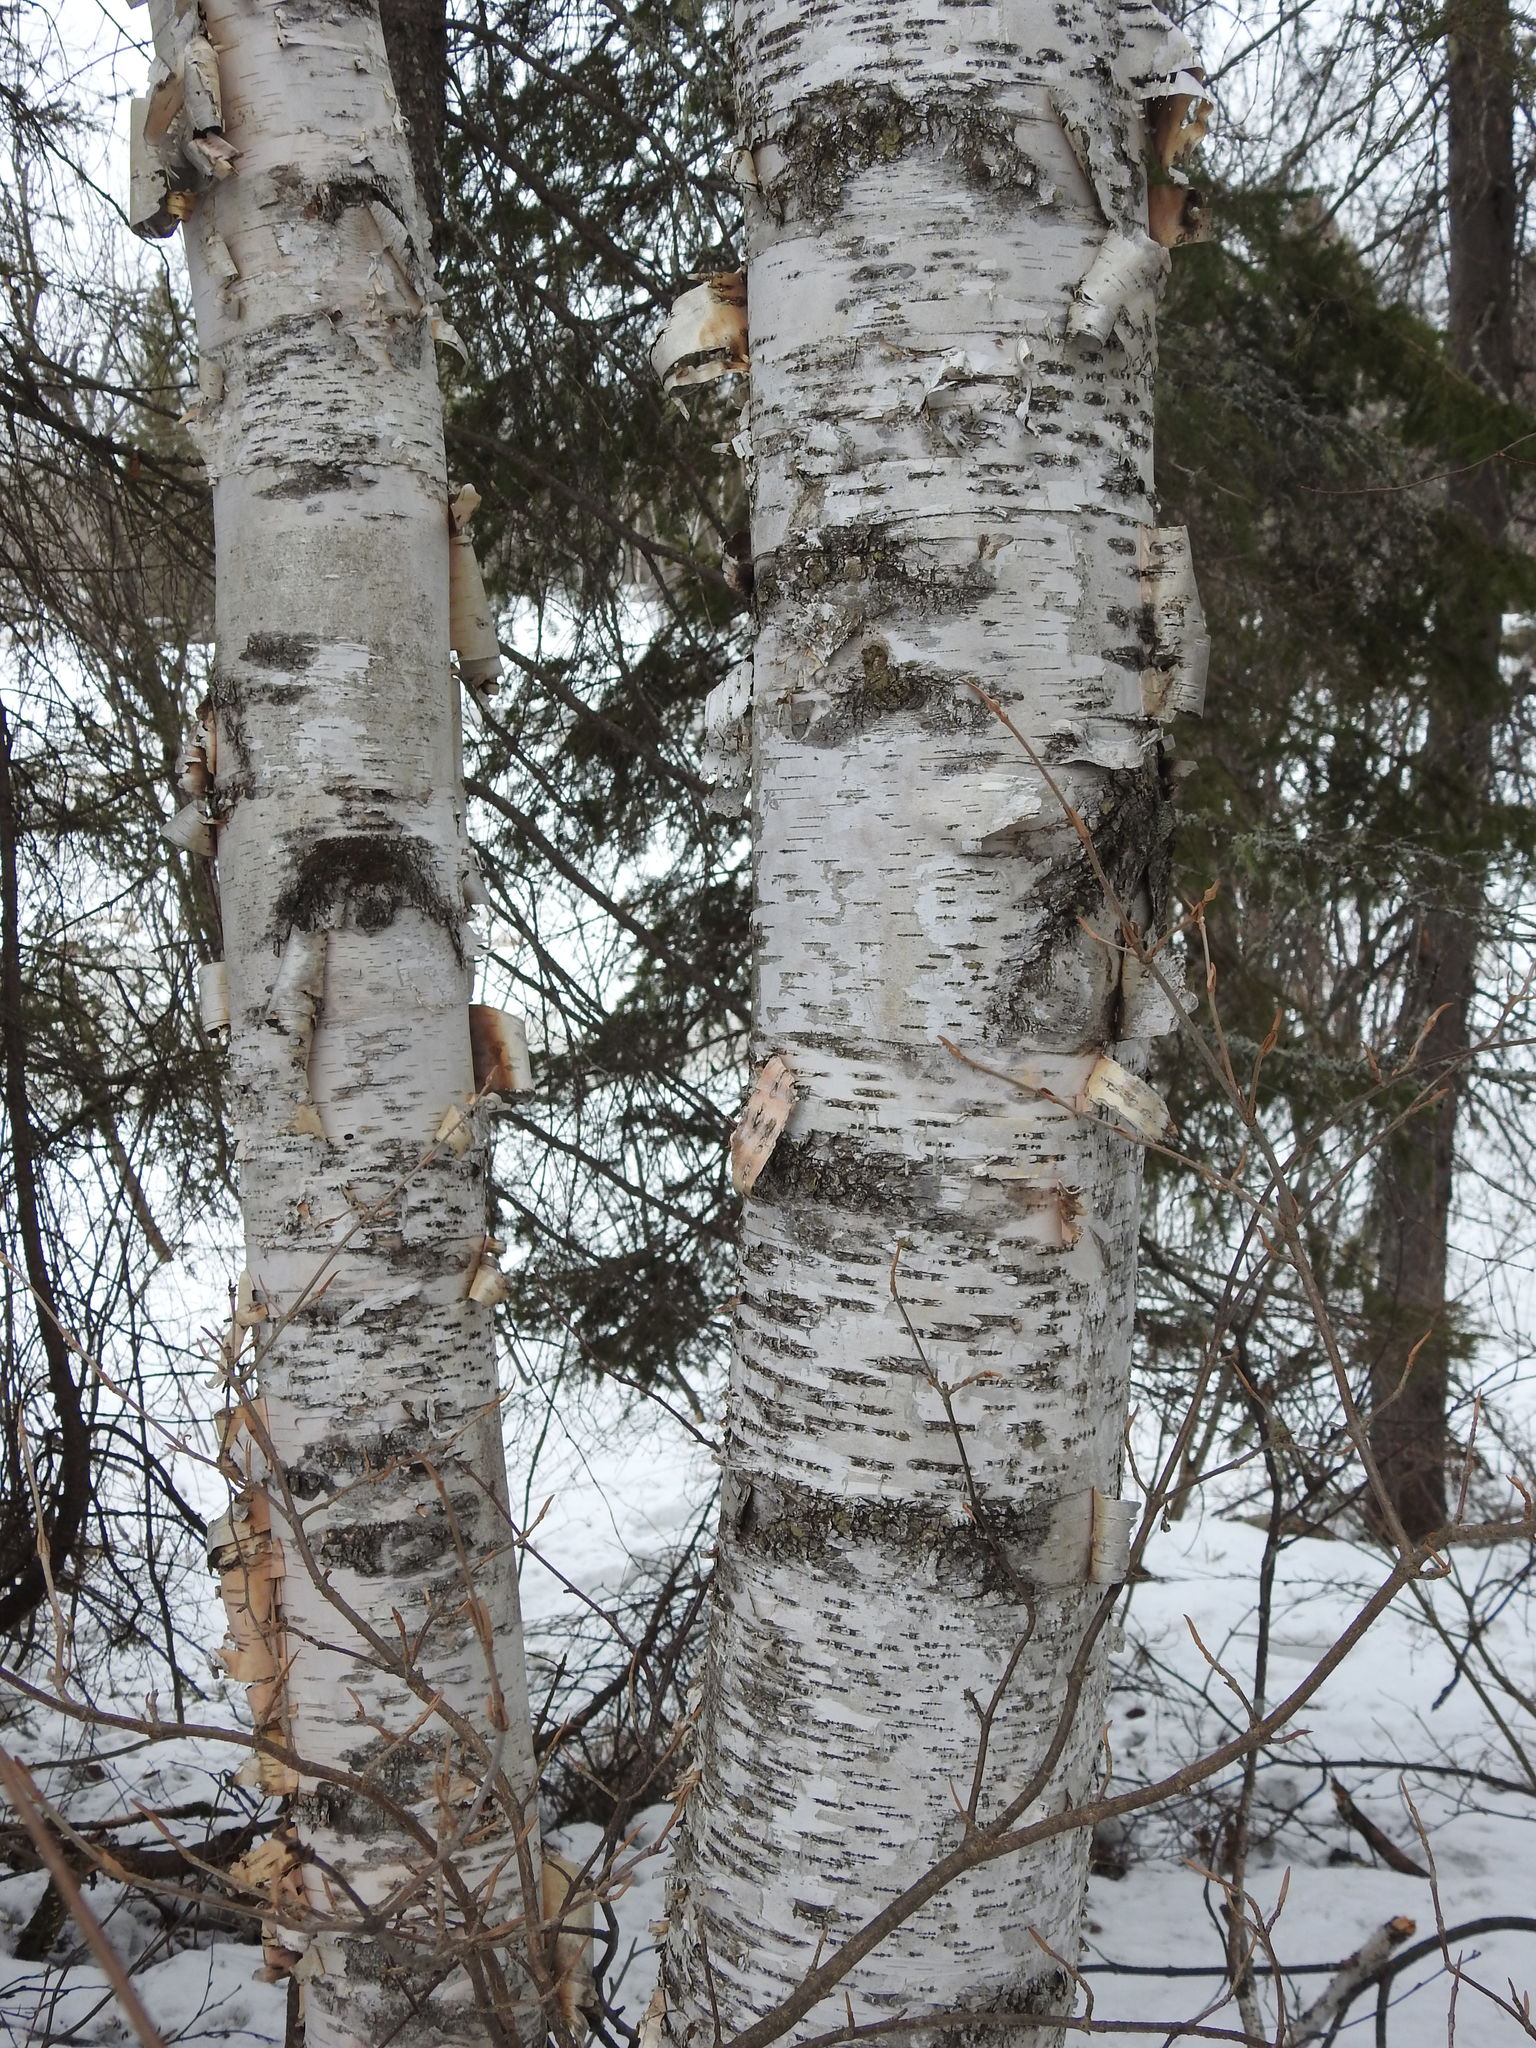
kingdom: Plantae
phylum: Tracheophyta
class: Magnoliopsida
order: Fagales
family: Betulaceae
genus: Betula
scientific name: Betula papyrifera
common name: Paper birch
